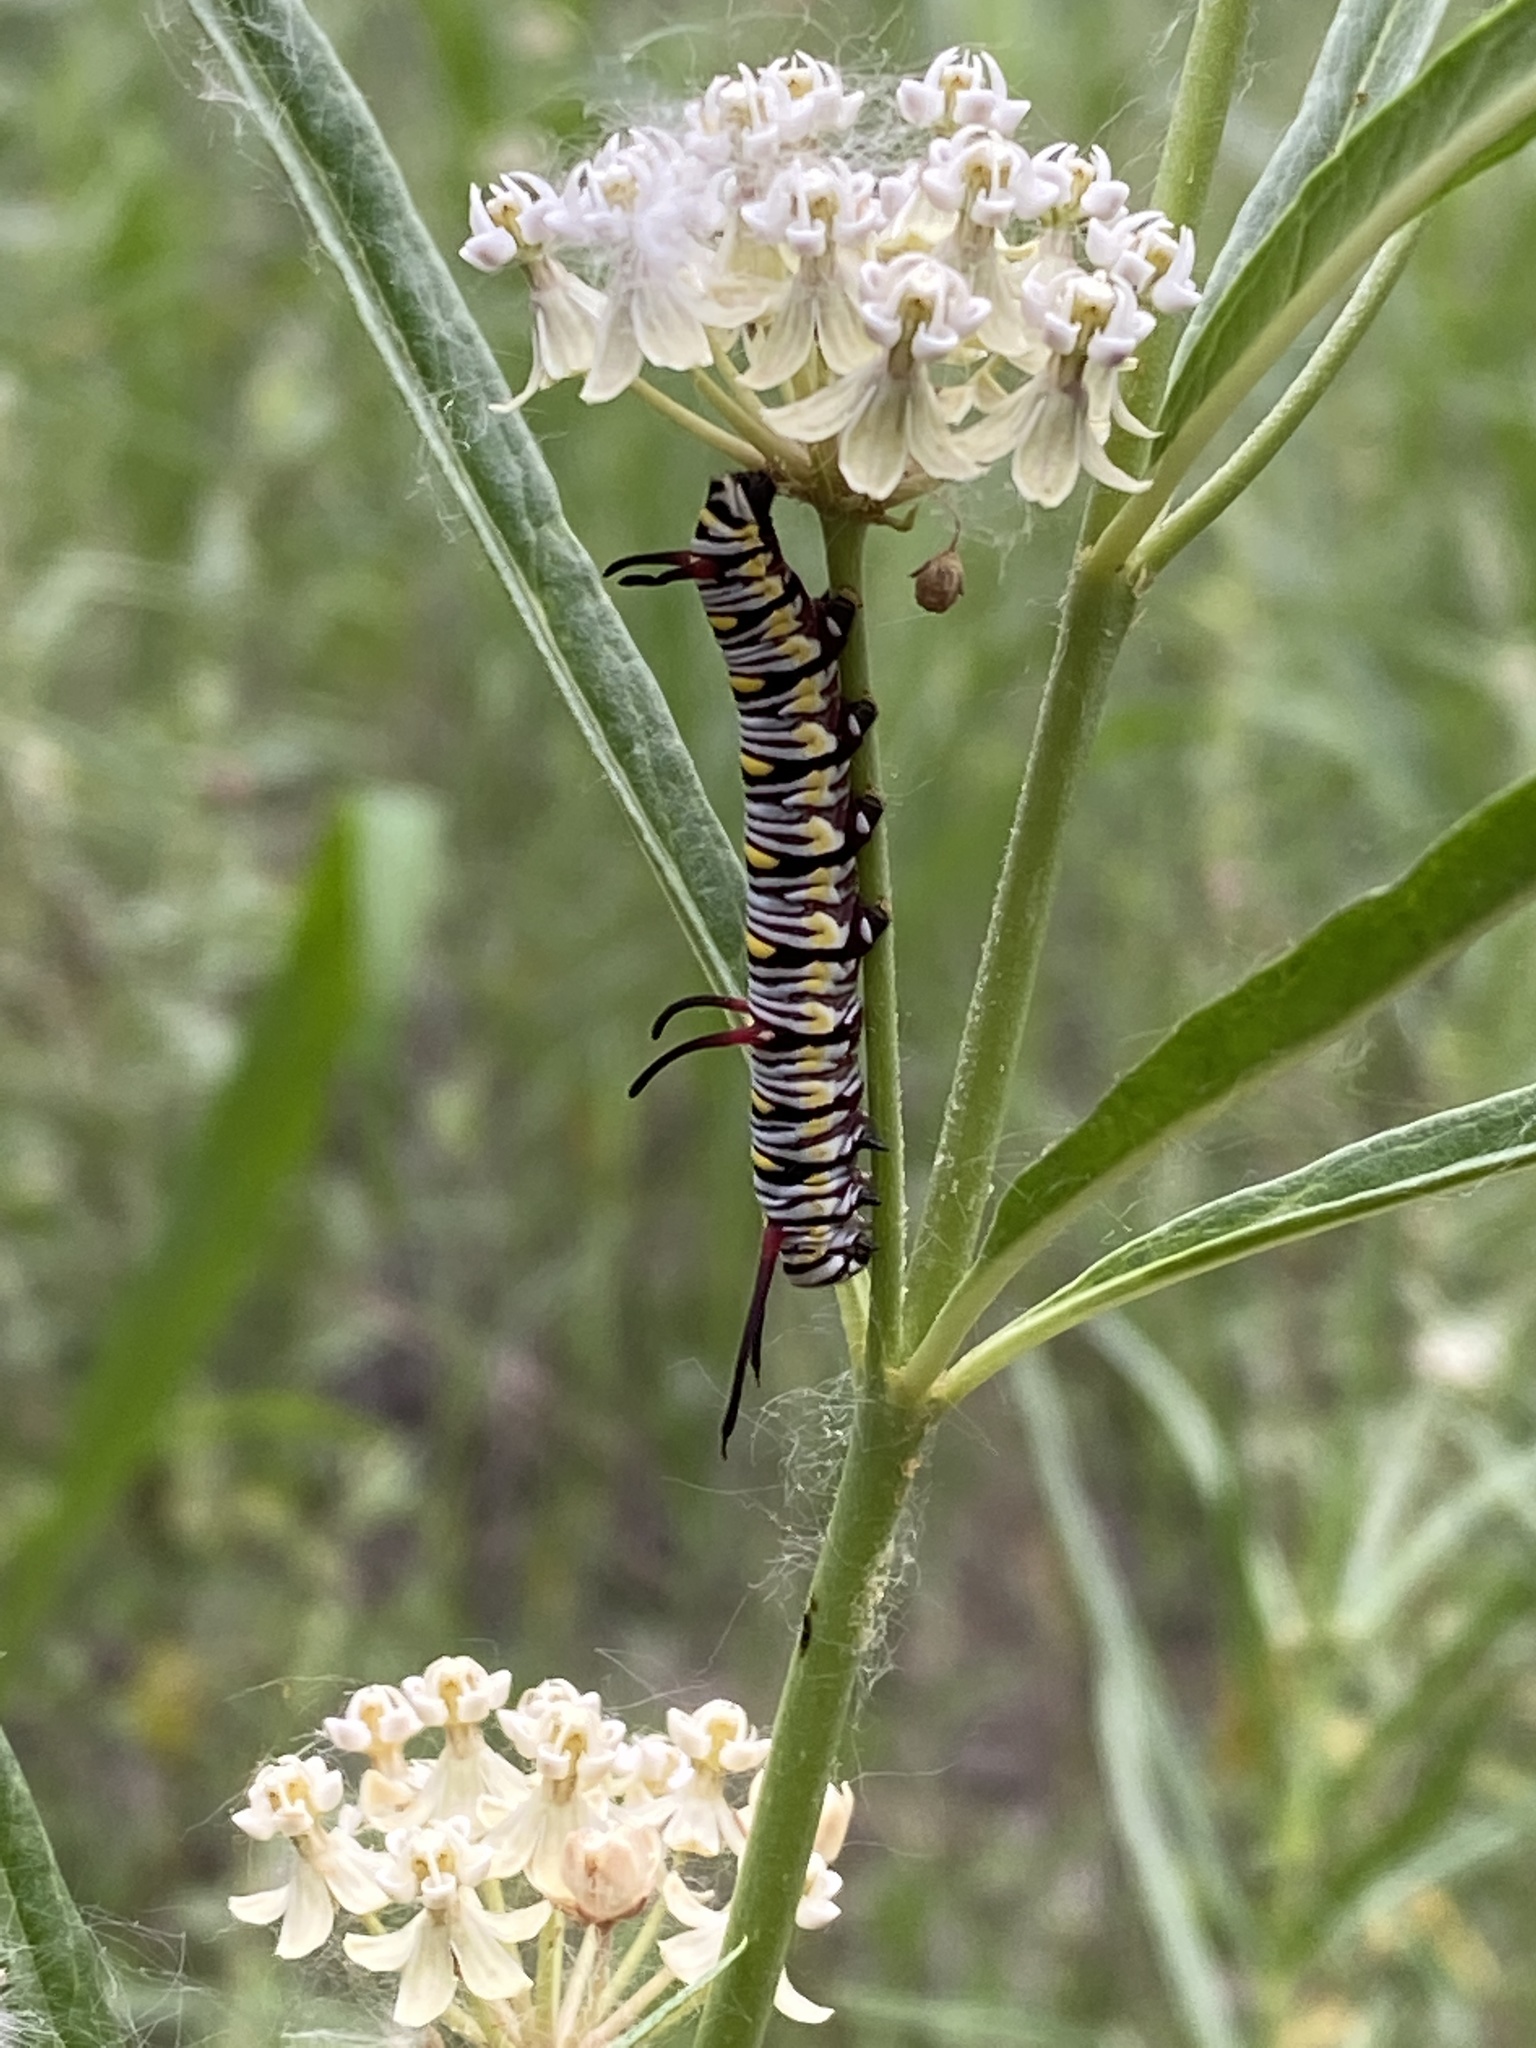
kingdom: Animalia
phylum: Arthropoda
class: Insecta
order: Lepidoptera
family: Nymphalidae
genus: Danaus
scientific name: Danaus gilippus
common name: Queen
